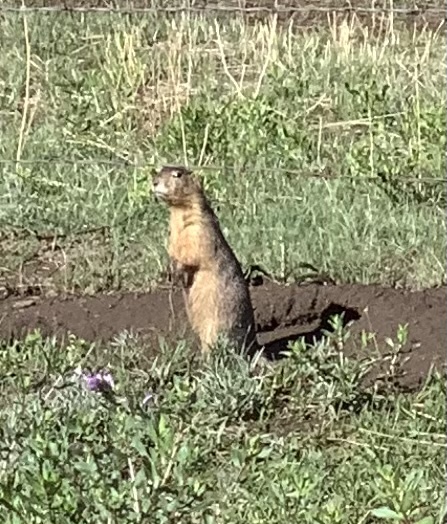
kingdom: Animalia
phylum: Chordata
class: Mammalia
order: Rodentia
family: Sciuridae
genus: Cynomys
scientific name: Cynomys gunnisoni
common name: Gunnison's prairie dog
